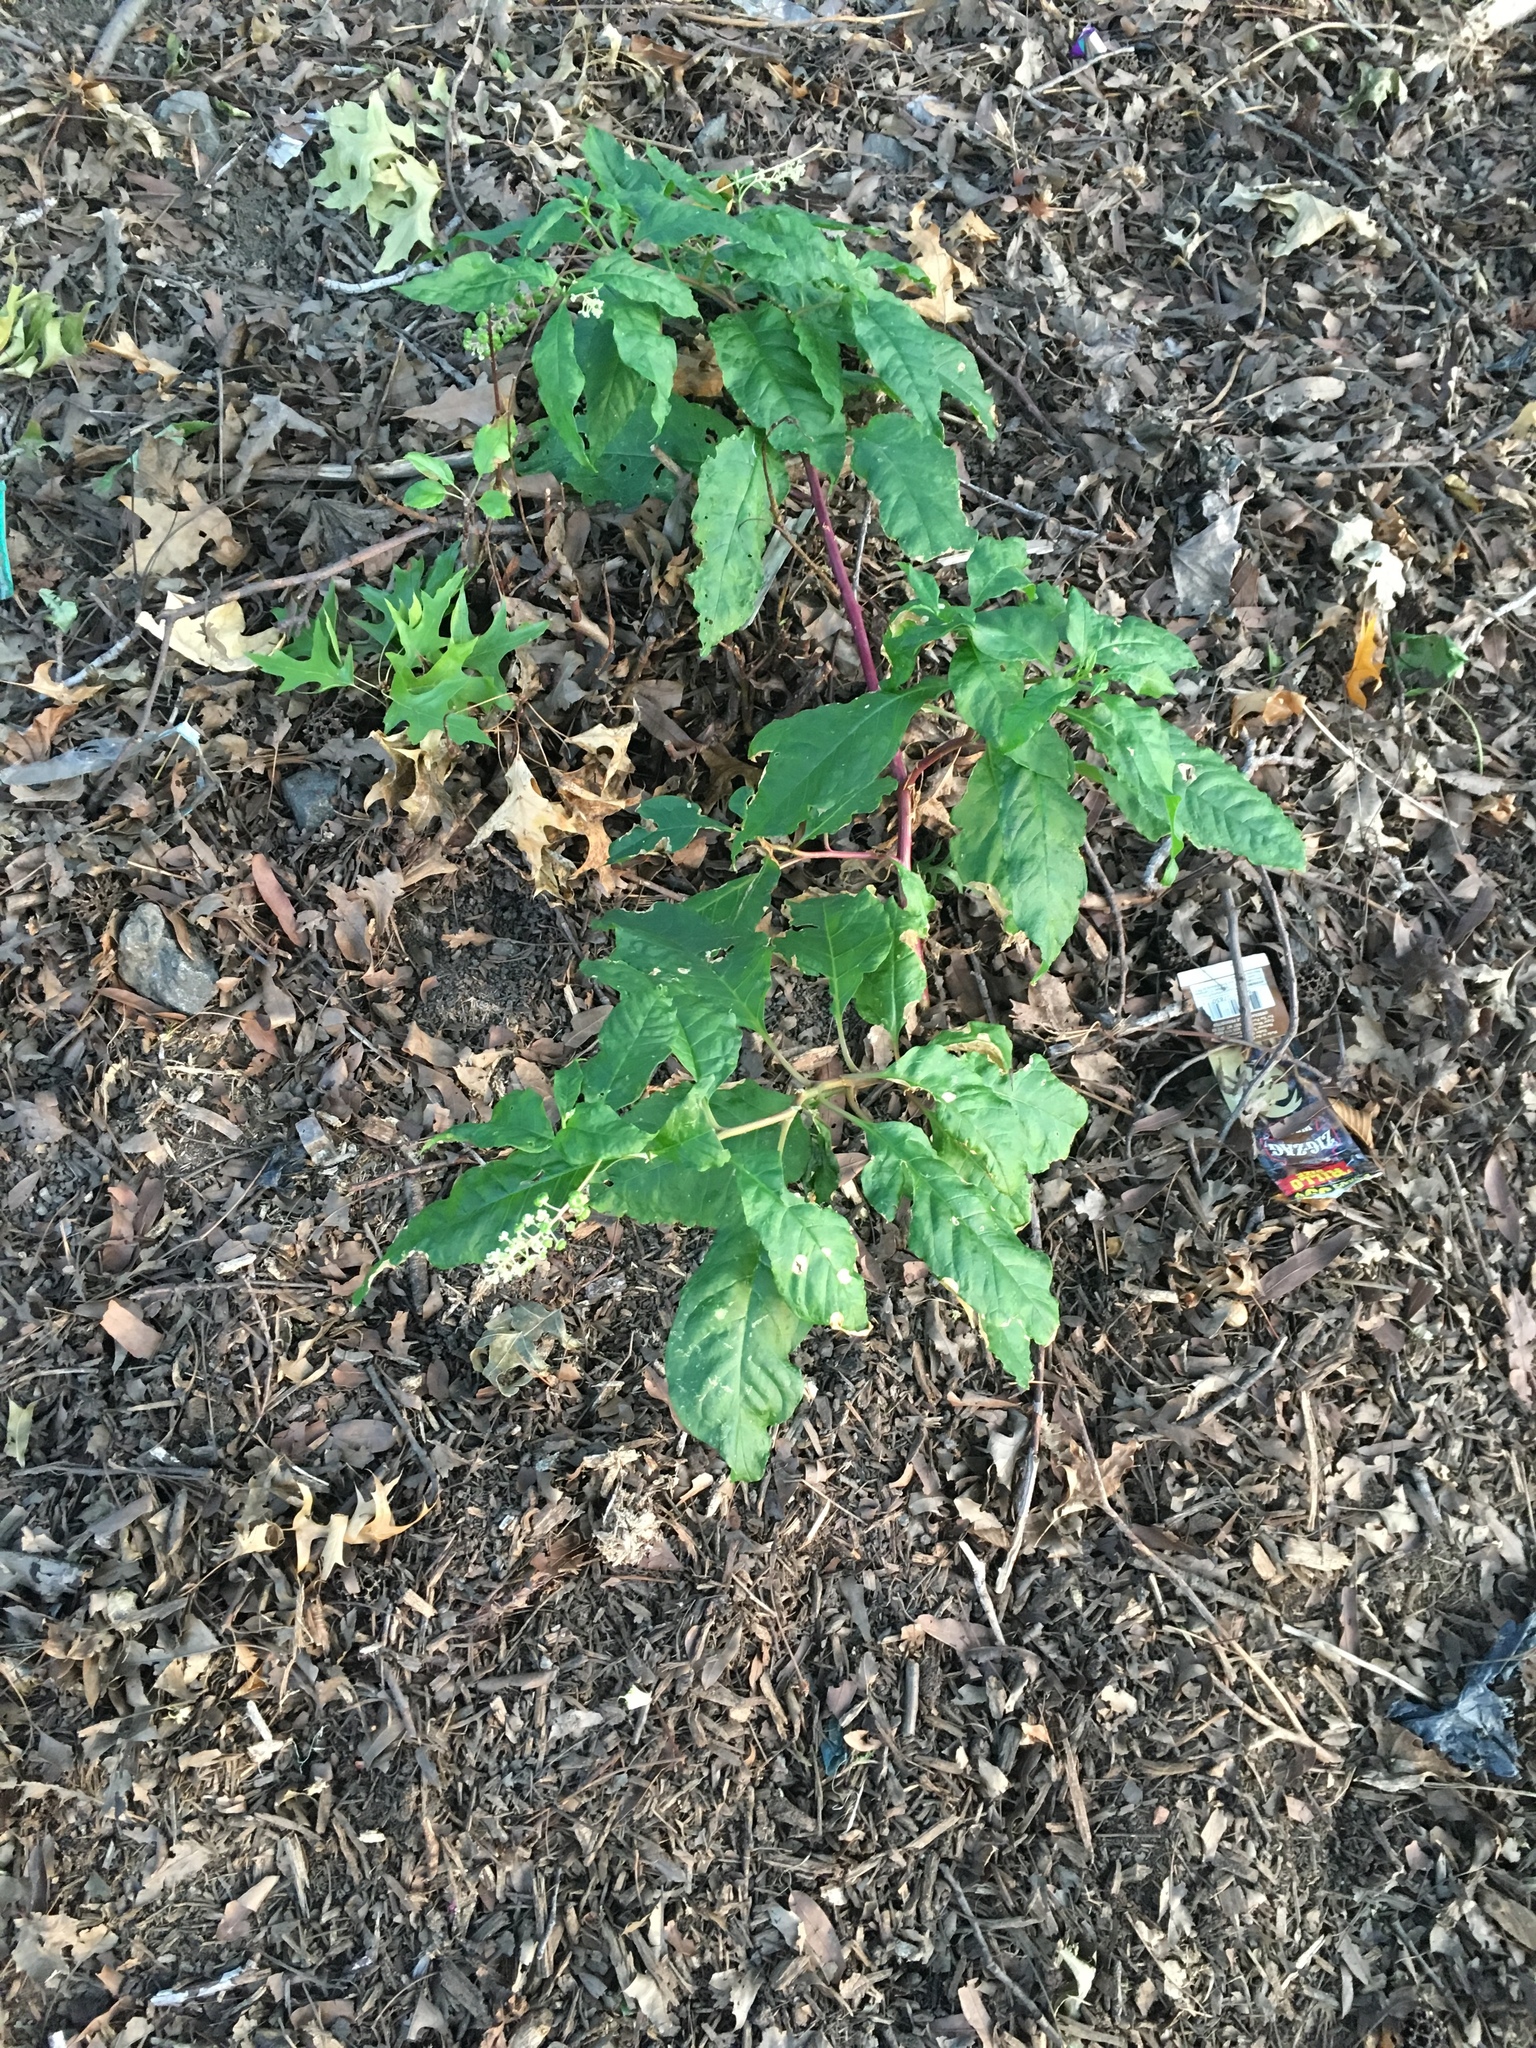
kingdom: Plantae
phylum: Tracheophyta
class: Magnoliopsida
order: Caryophyllales
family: Phytolaccaceae
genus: Phytolacca
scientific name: Phytolacca americana
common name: American pokeweed
